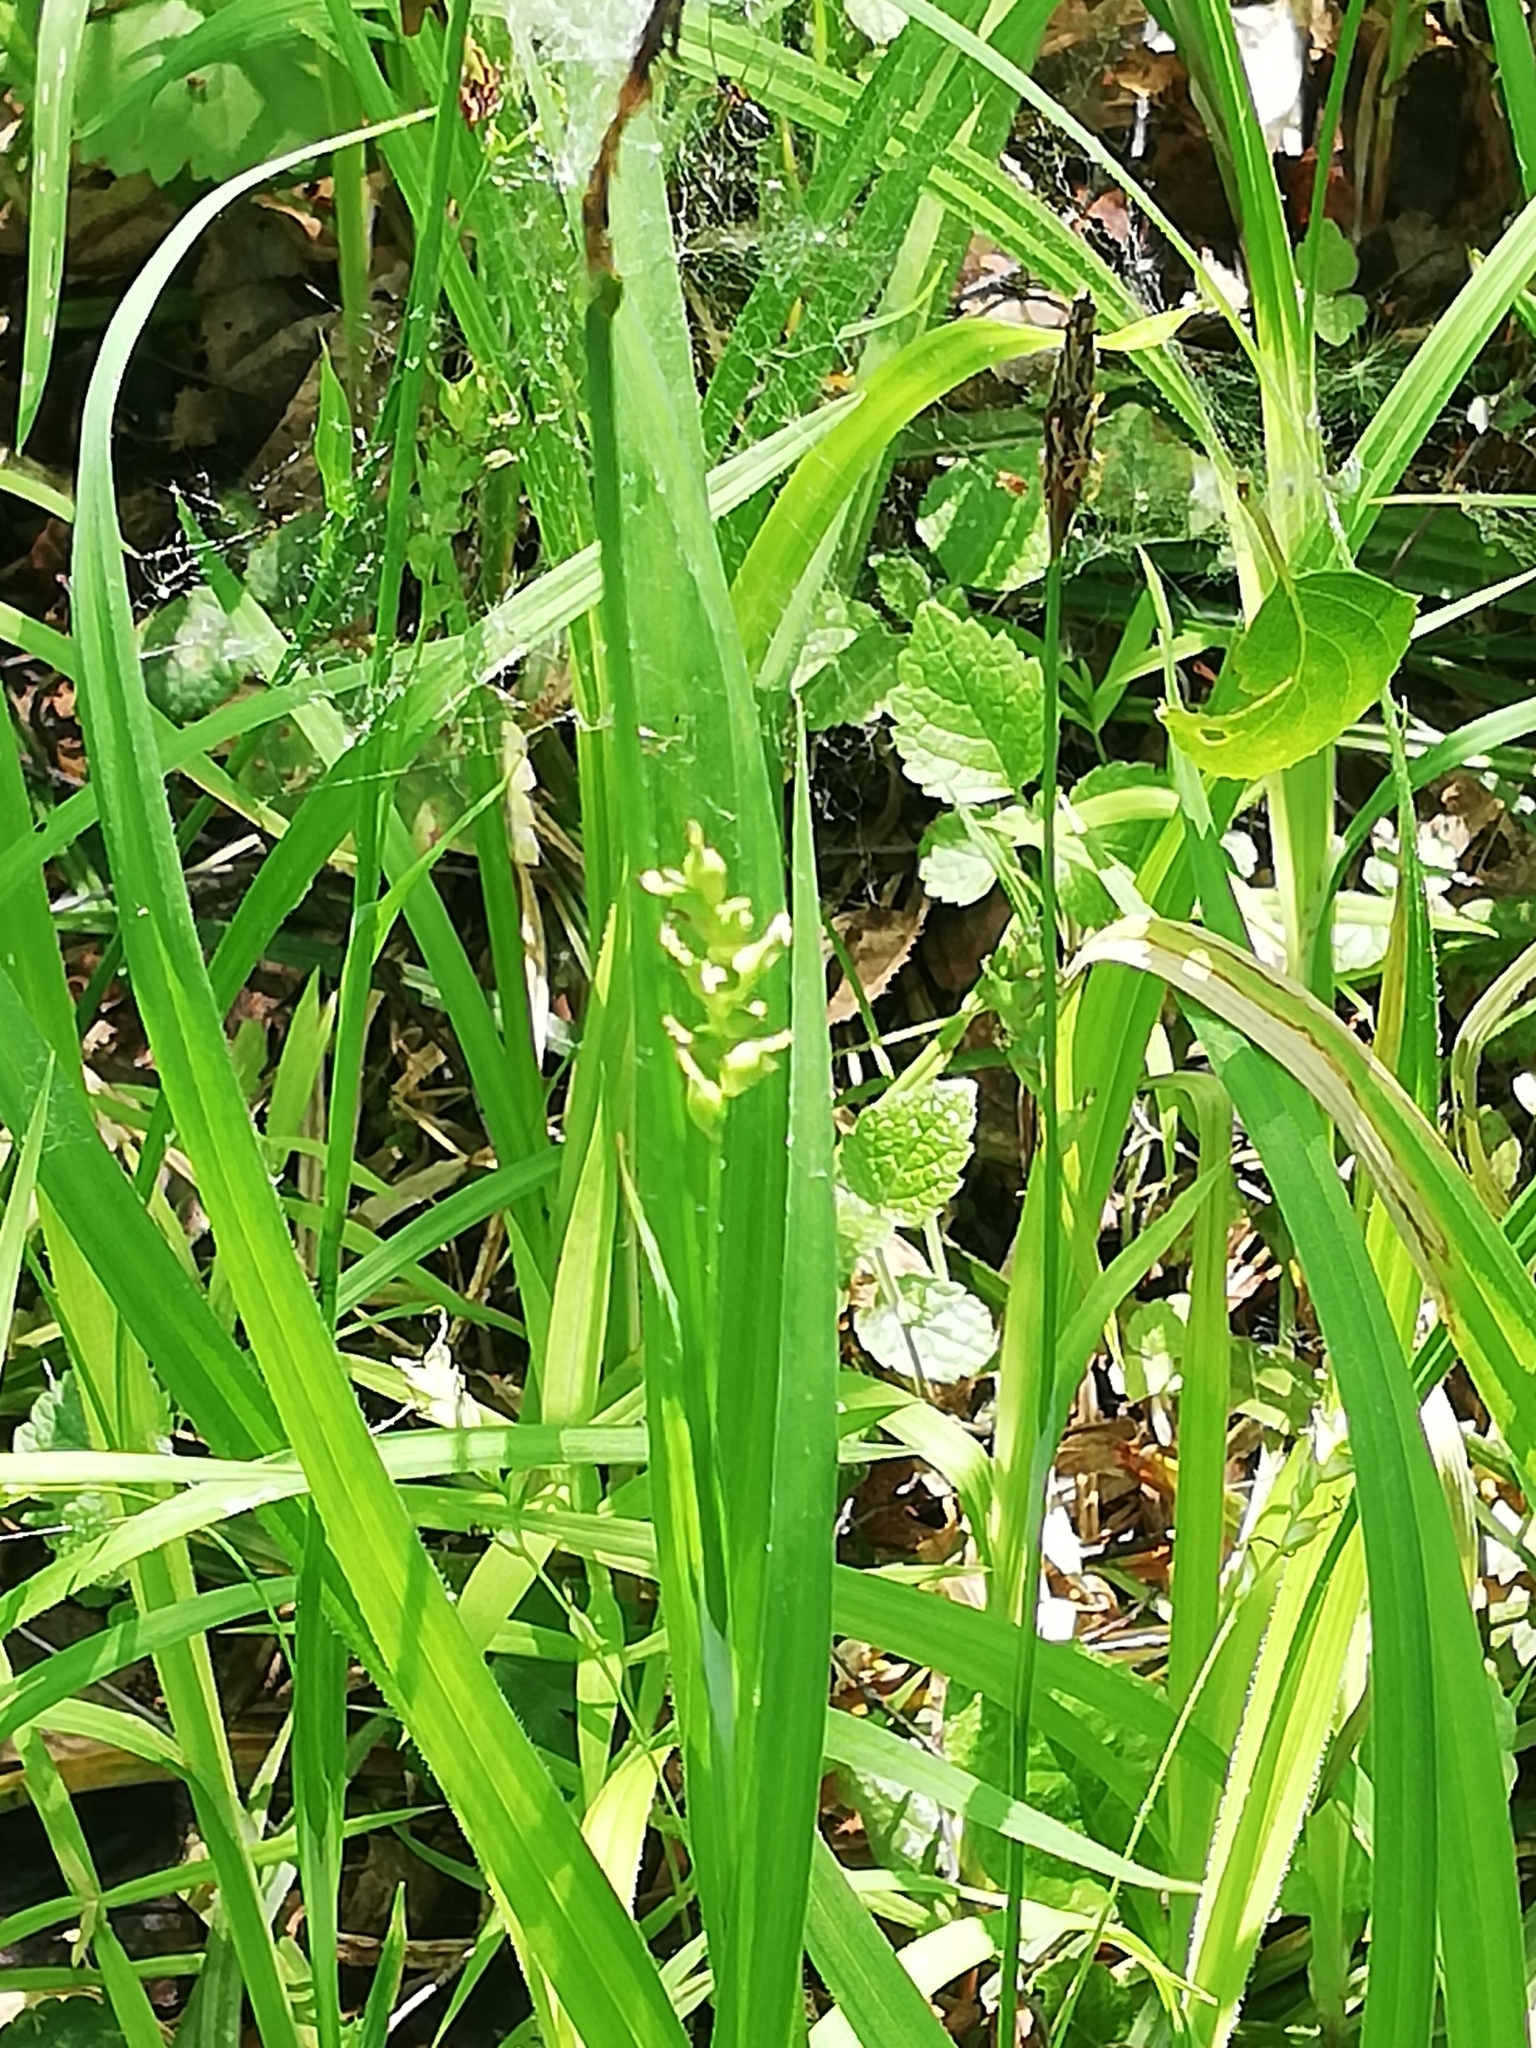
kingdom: Plantae
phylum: Tracheophyta
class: Liliopsida
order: Poales
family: Cyperaceae
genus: Carex
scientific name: Carex pilosa
